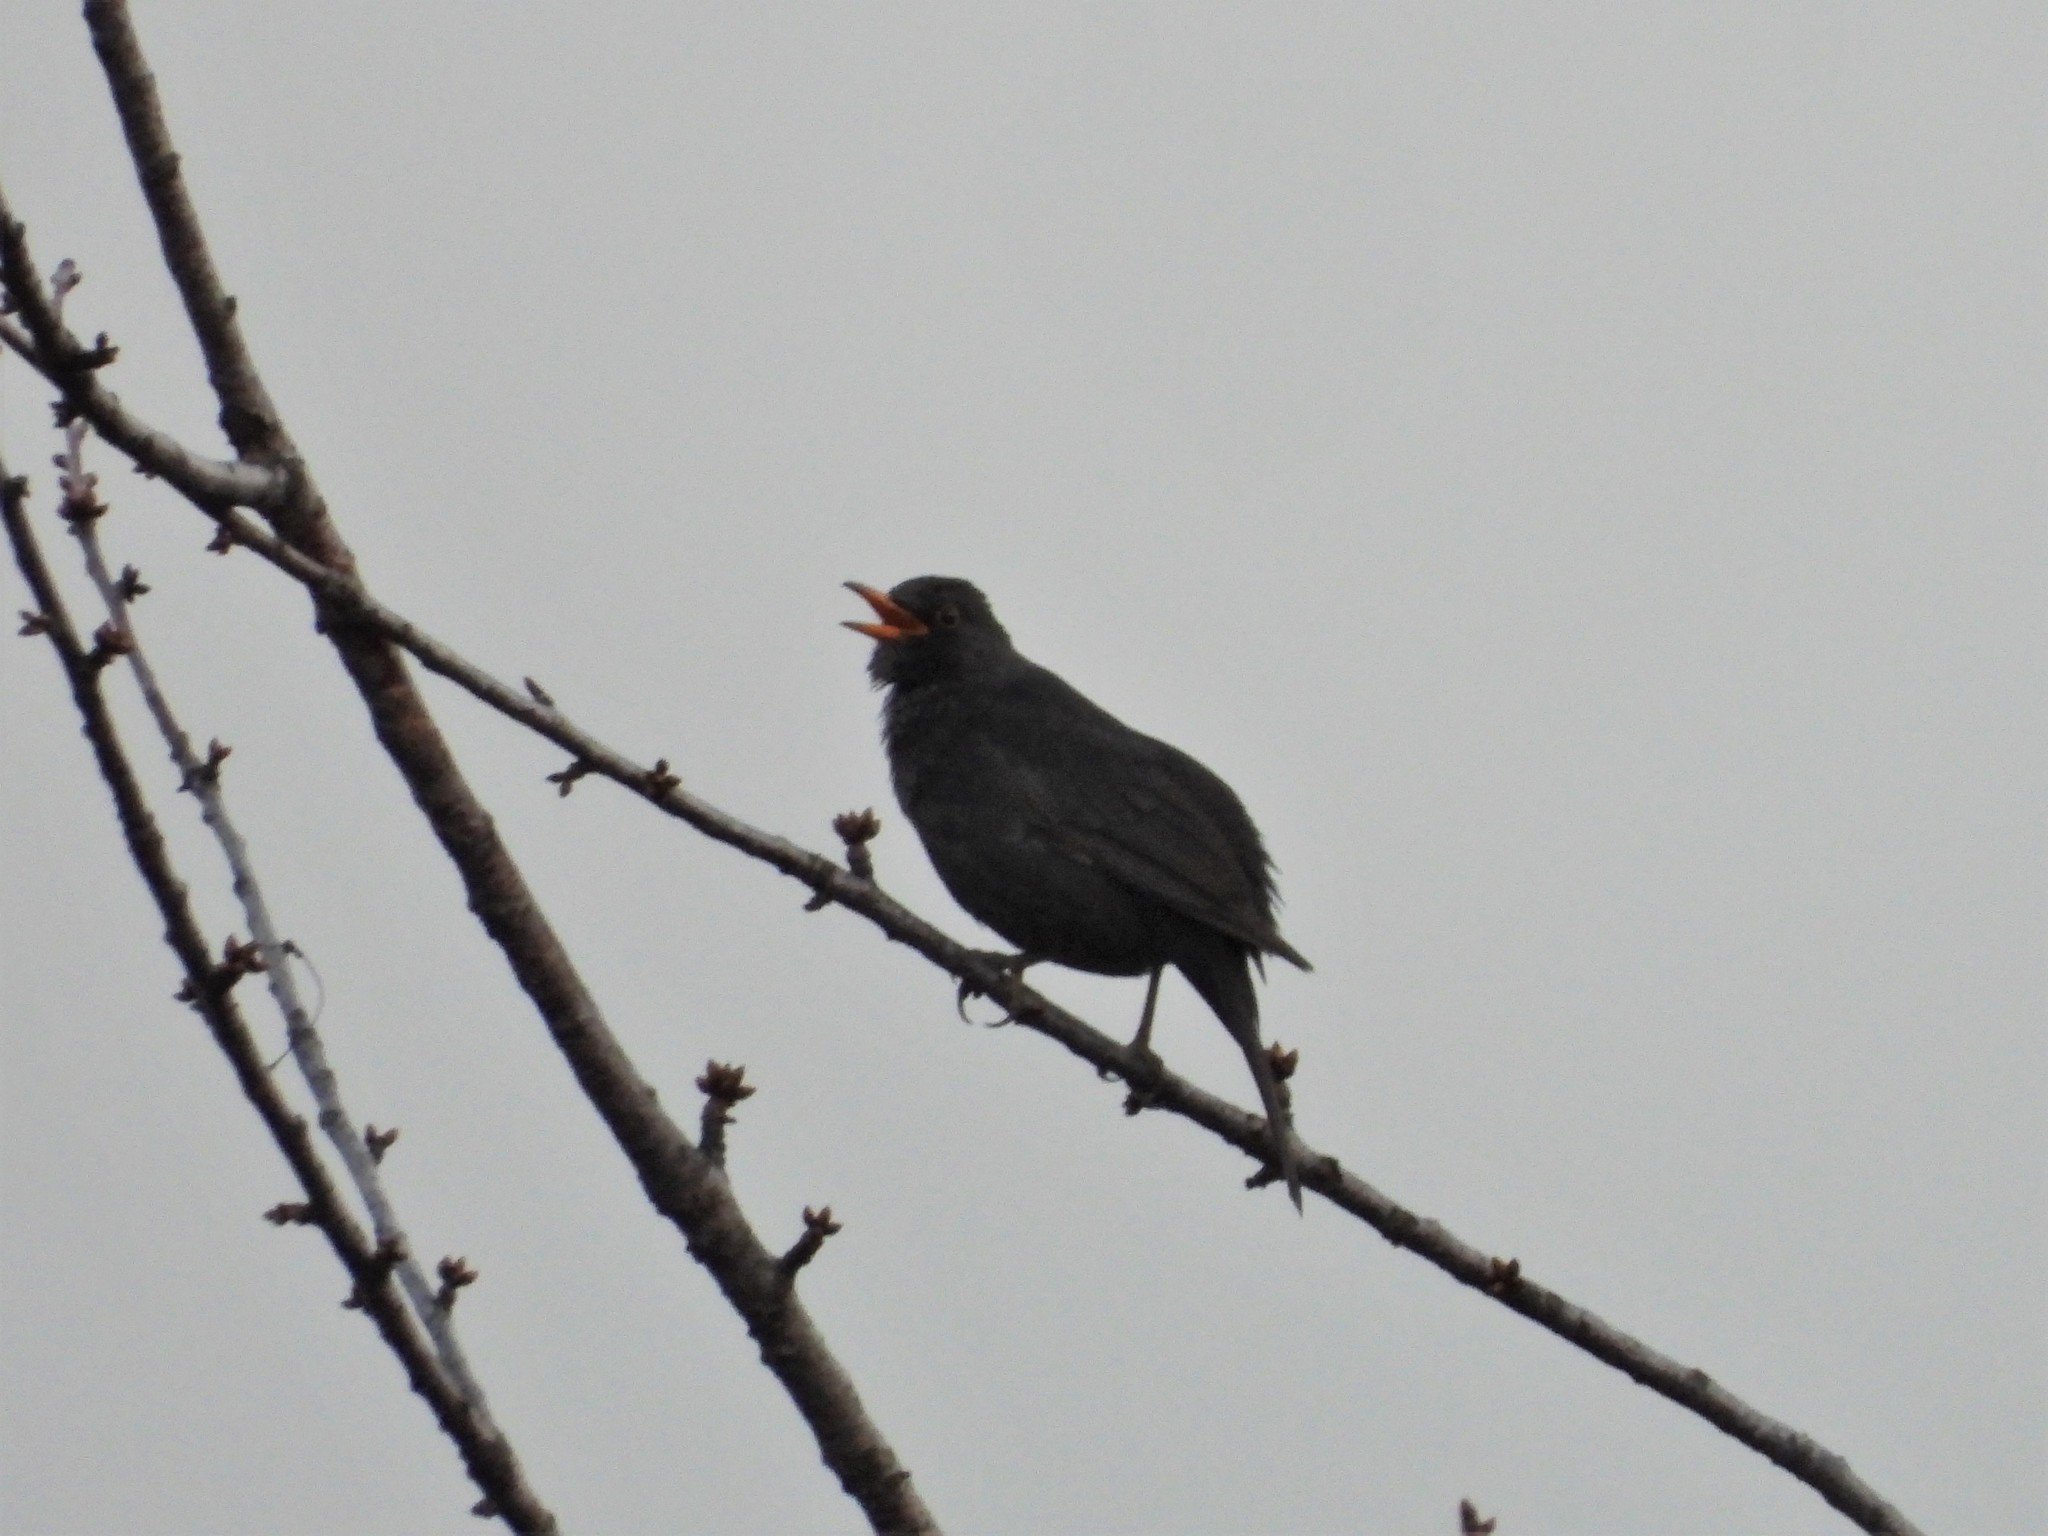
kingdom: Animalia
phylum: Chordata
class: Aves
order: Passeriformes
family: Turdidae
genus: Turdus
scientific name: Turdus merula
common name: Common blackbird
